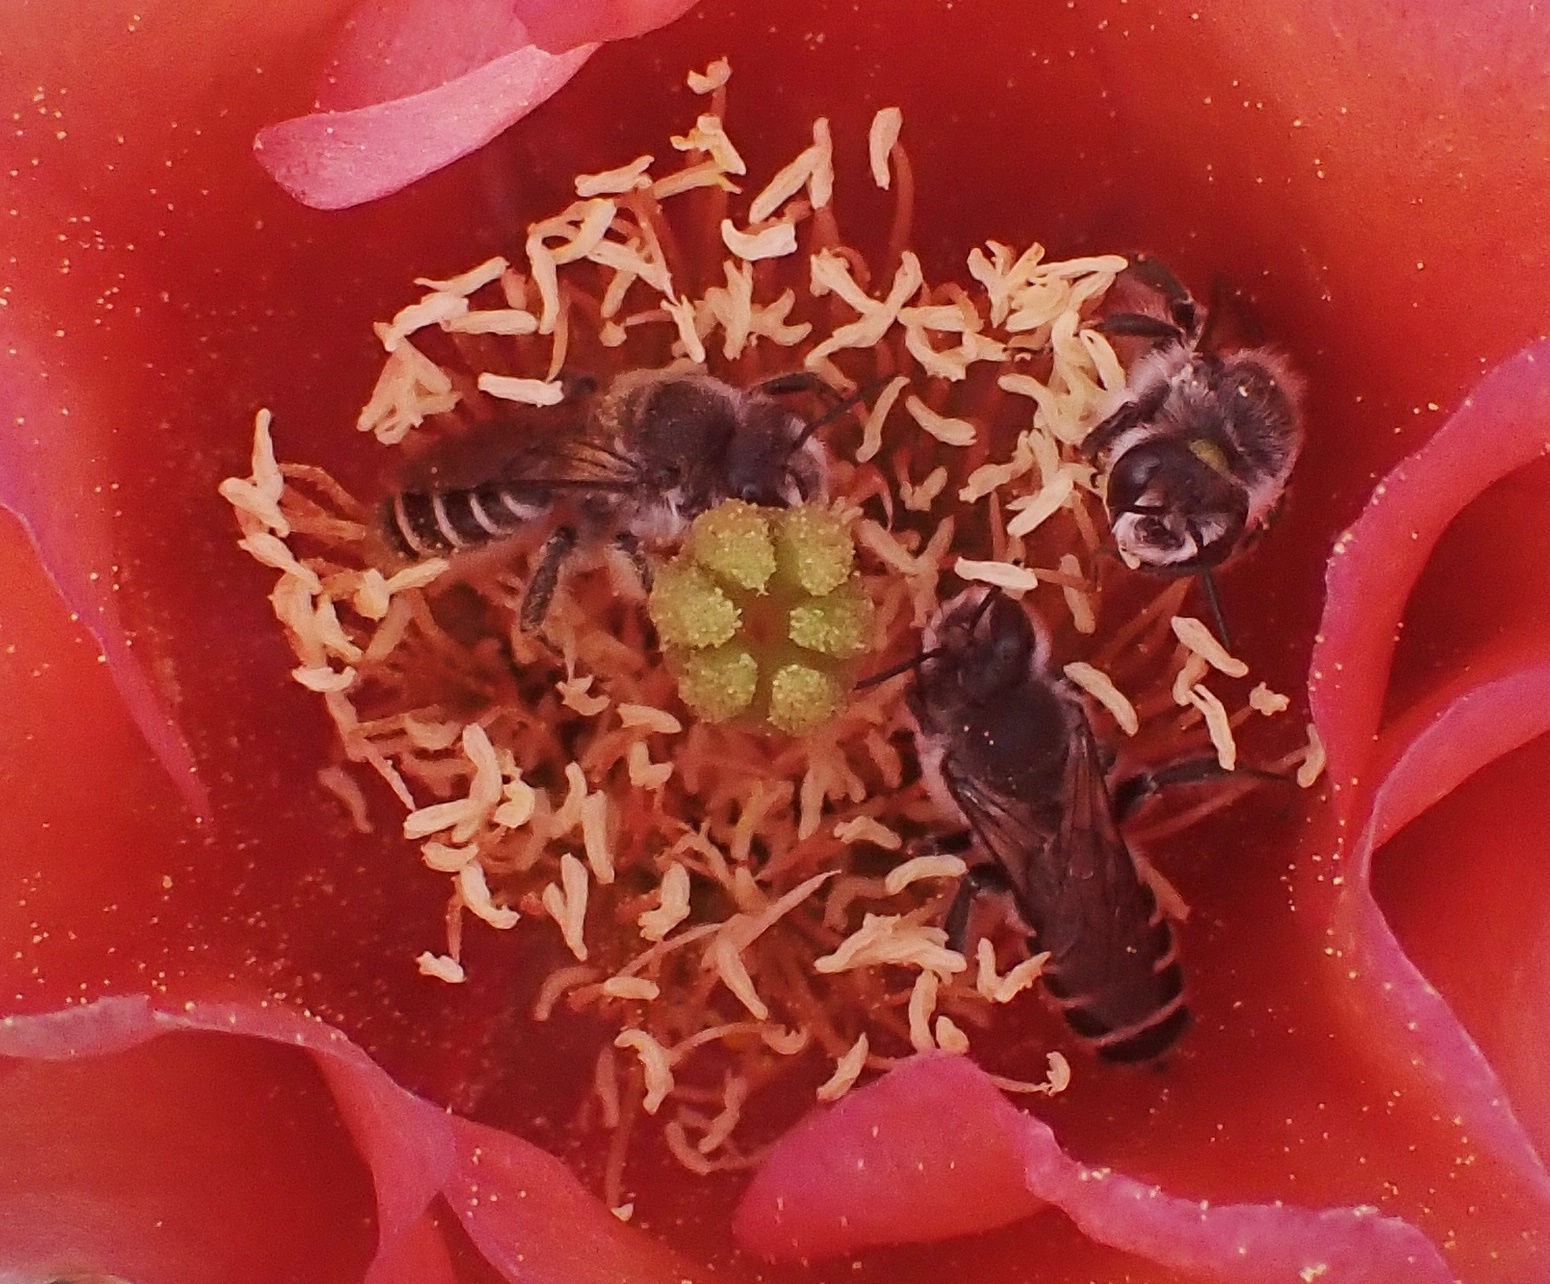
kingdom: Animalia
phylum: Arthropoda
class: Insecta
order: Hymenoptera
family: Megachilidae
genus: Lithurgopsis
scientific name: Lithurgopsis apicalis
